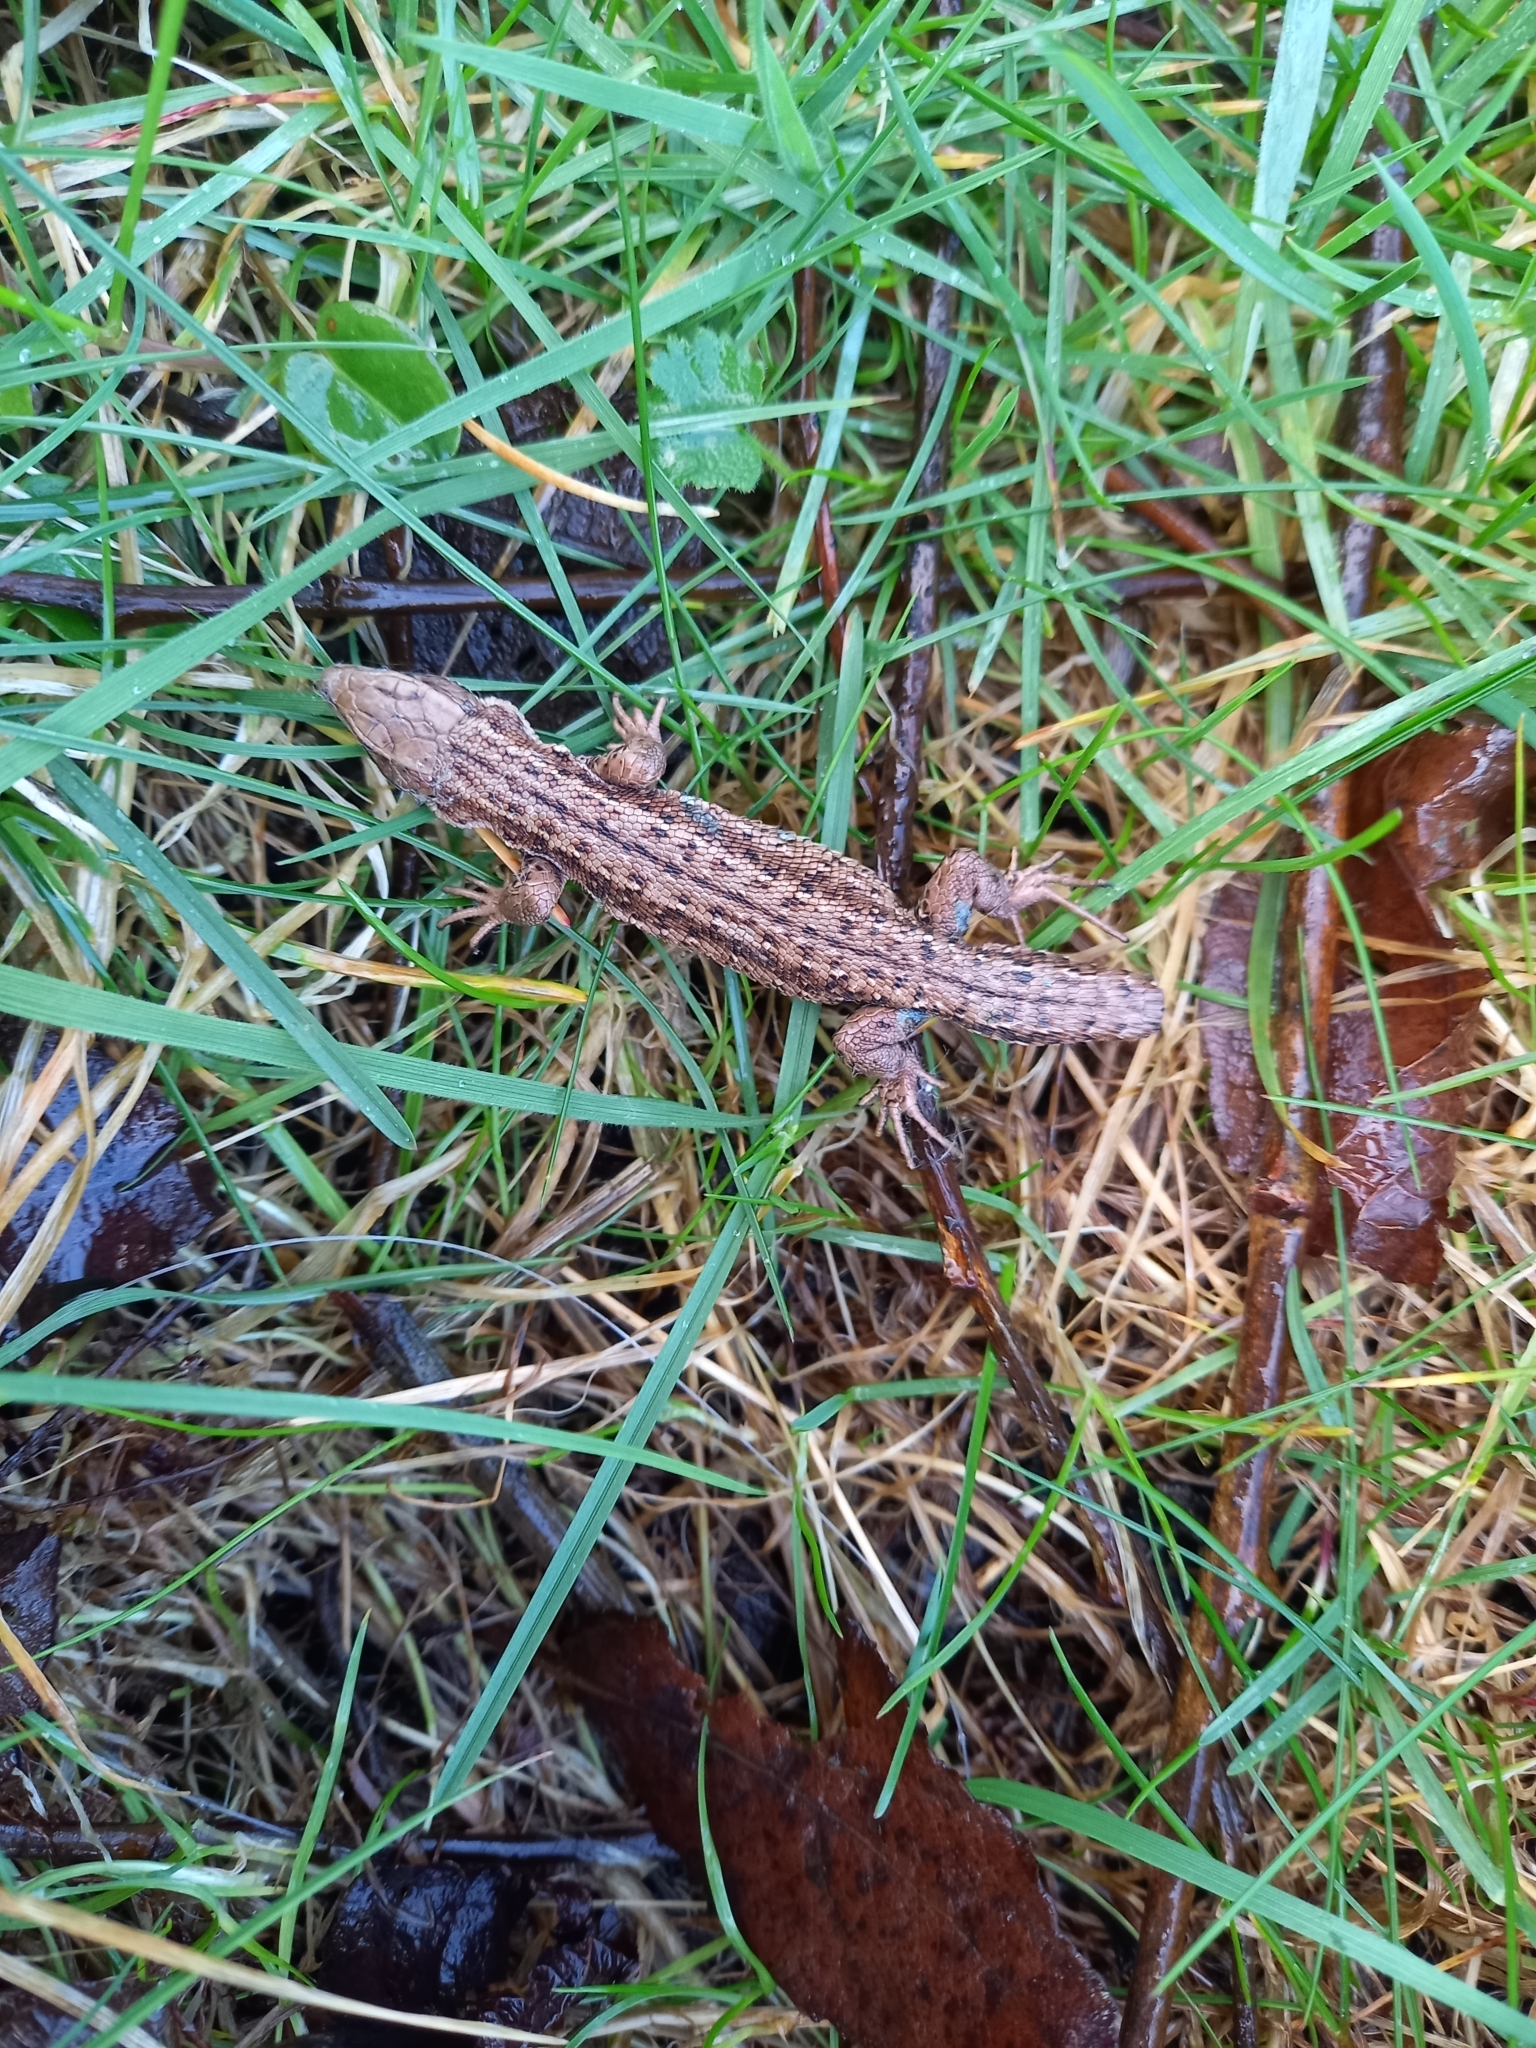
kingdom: Animalia
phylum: Chordata
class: Squamata
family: Lacertidae
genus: Zootoca
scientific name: Zootoca vivipara
